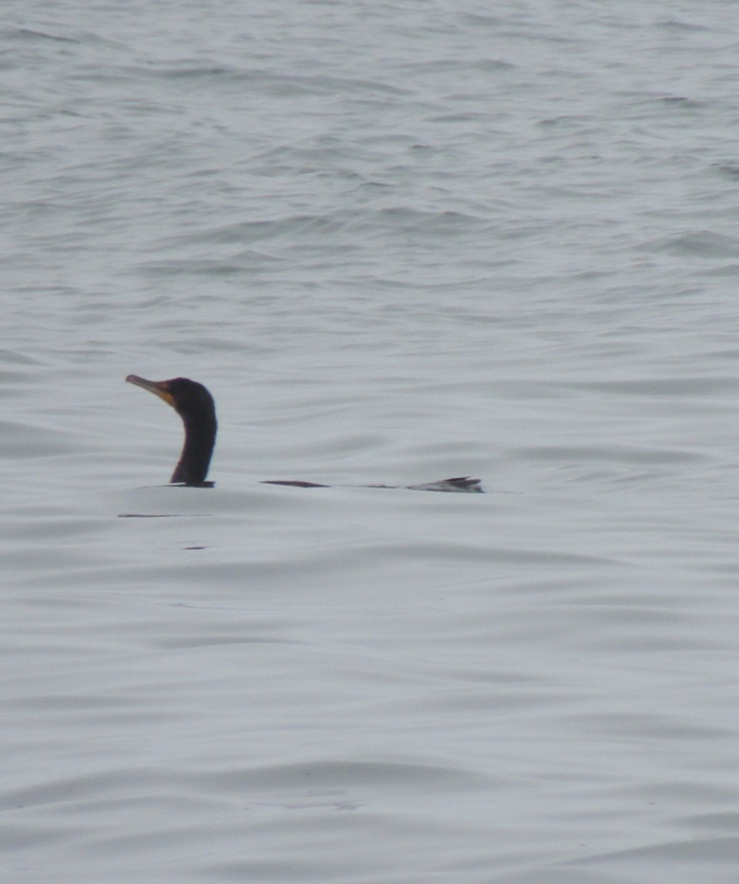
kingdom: Animalia
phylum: Chordata
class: Aves
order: Suliformes
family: Phalacrocoracidae
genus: Phalacrocorax
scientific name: Phalacrocorax auritus
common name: Double-crested cormorant
